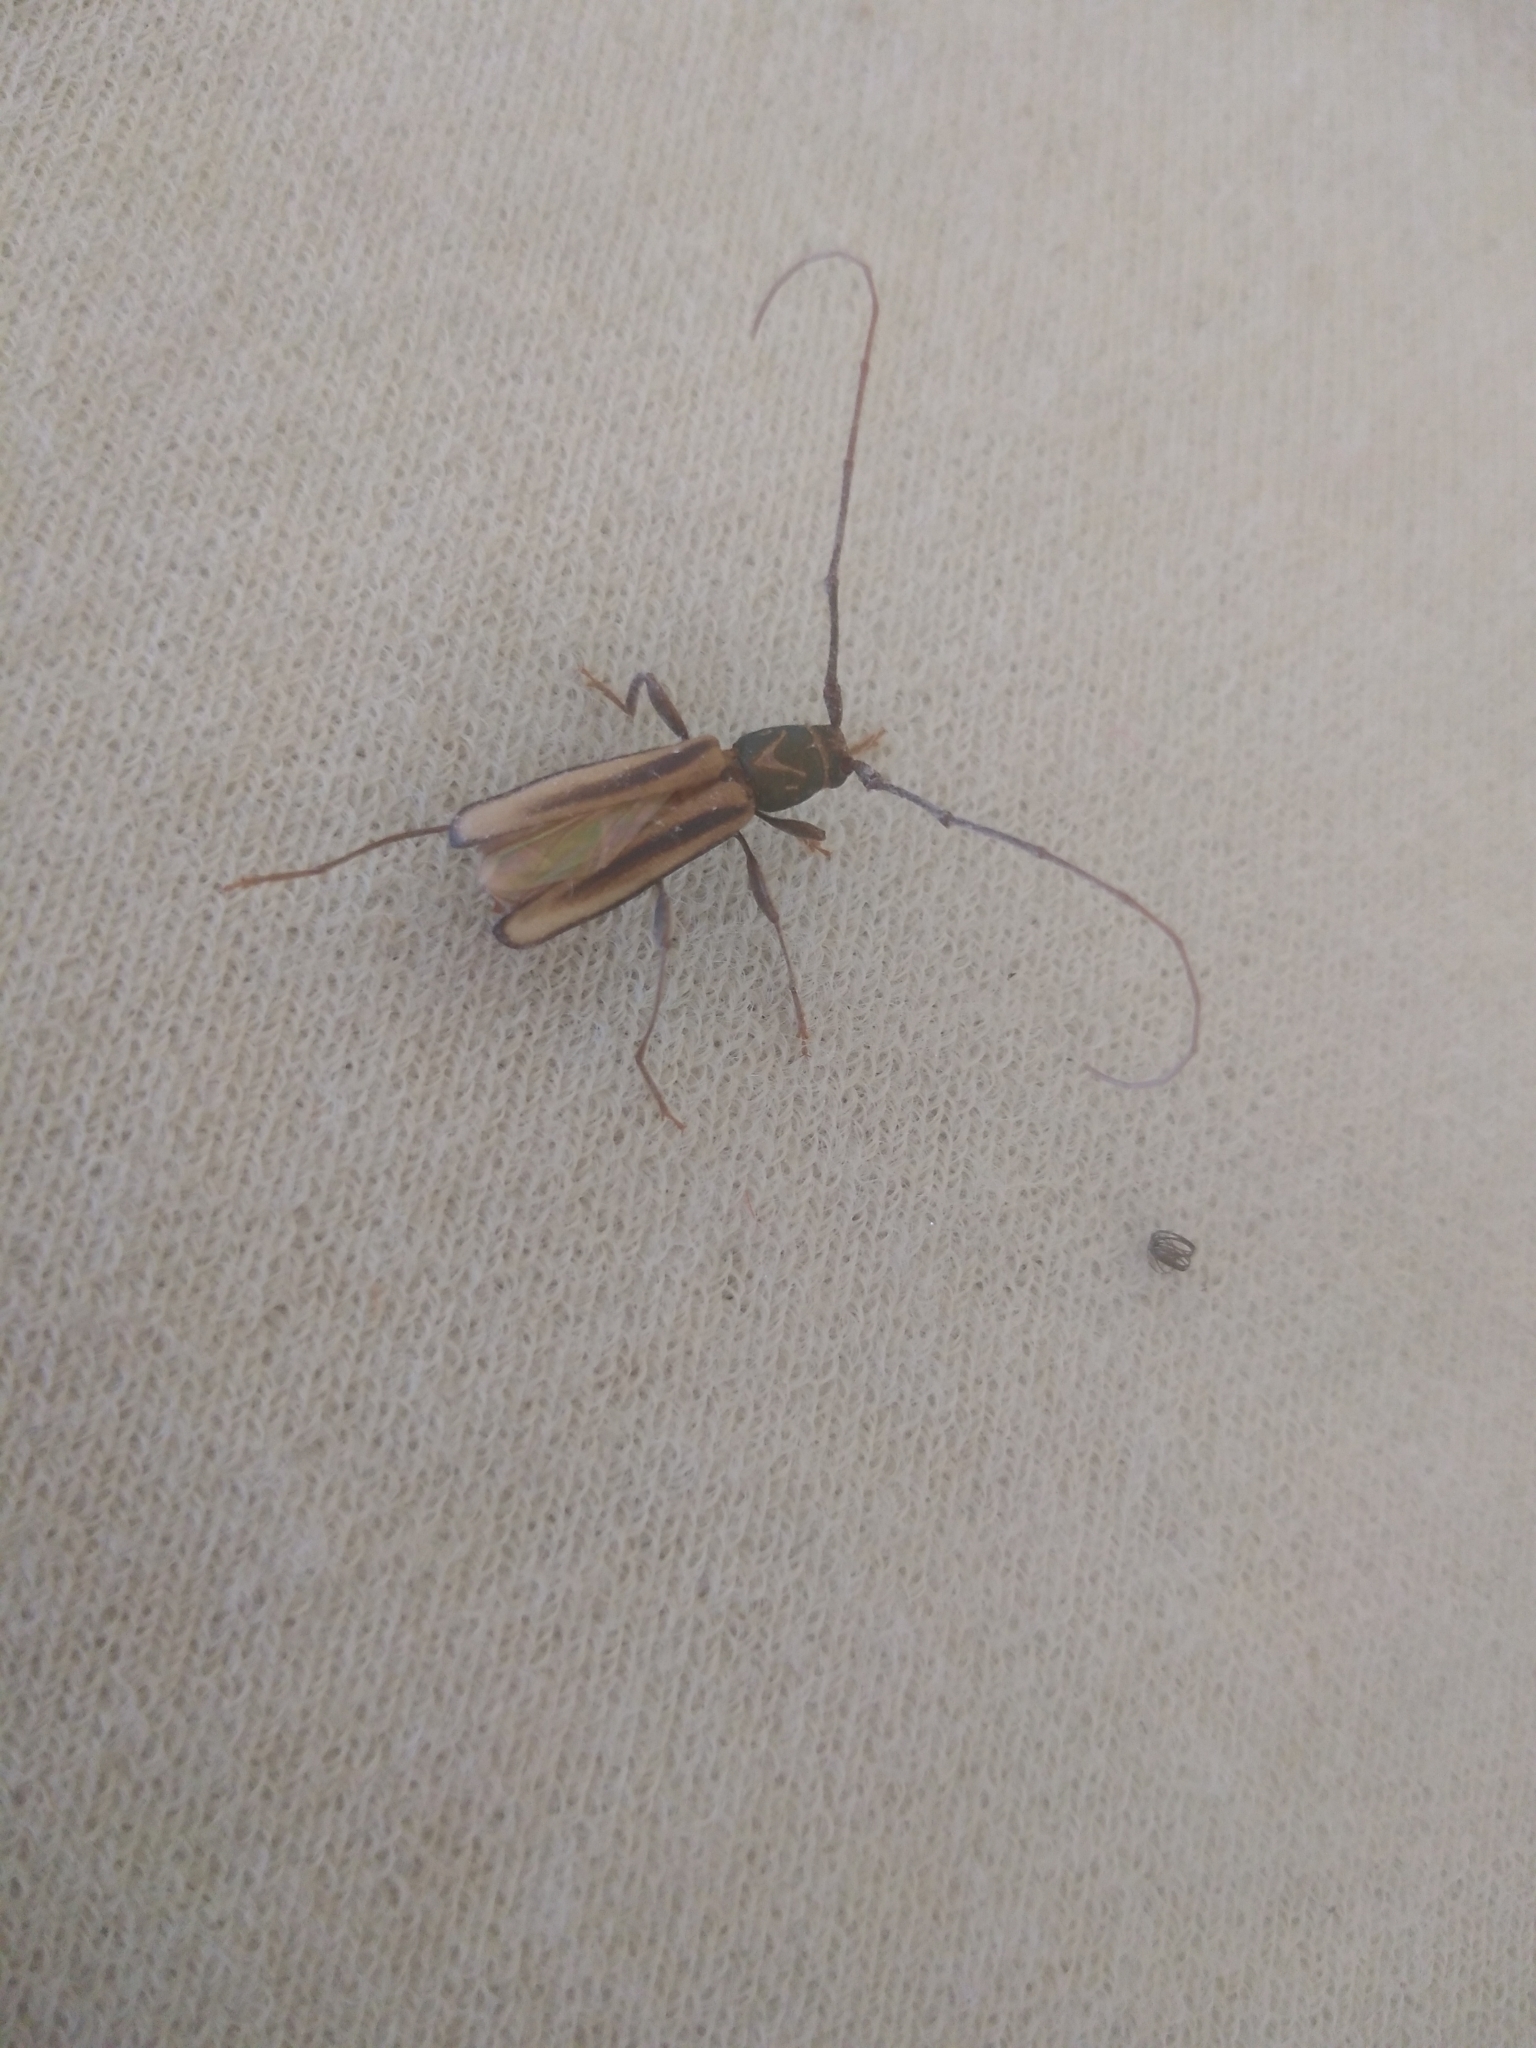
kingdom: Animalia
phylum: Arthropoda
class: Insecta
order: Coleoptera
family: Cerambycidae
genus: Xystrocera
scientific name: Xystrocera dispar
